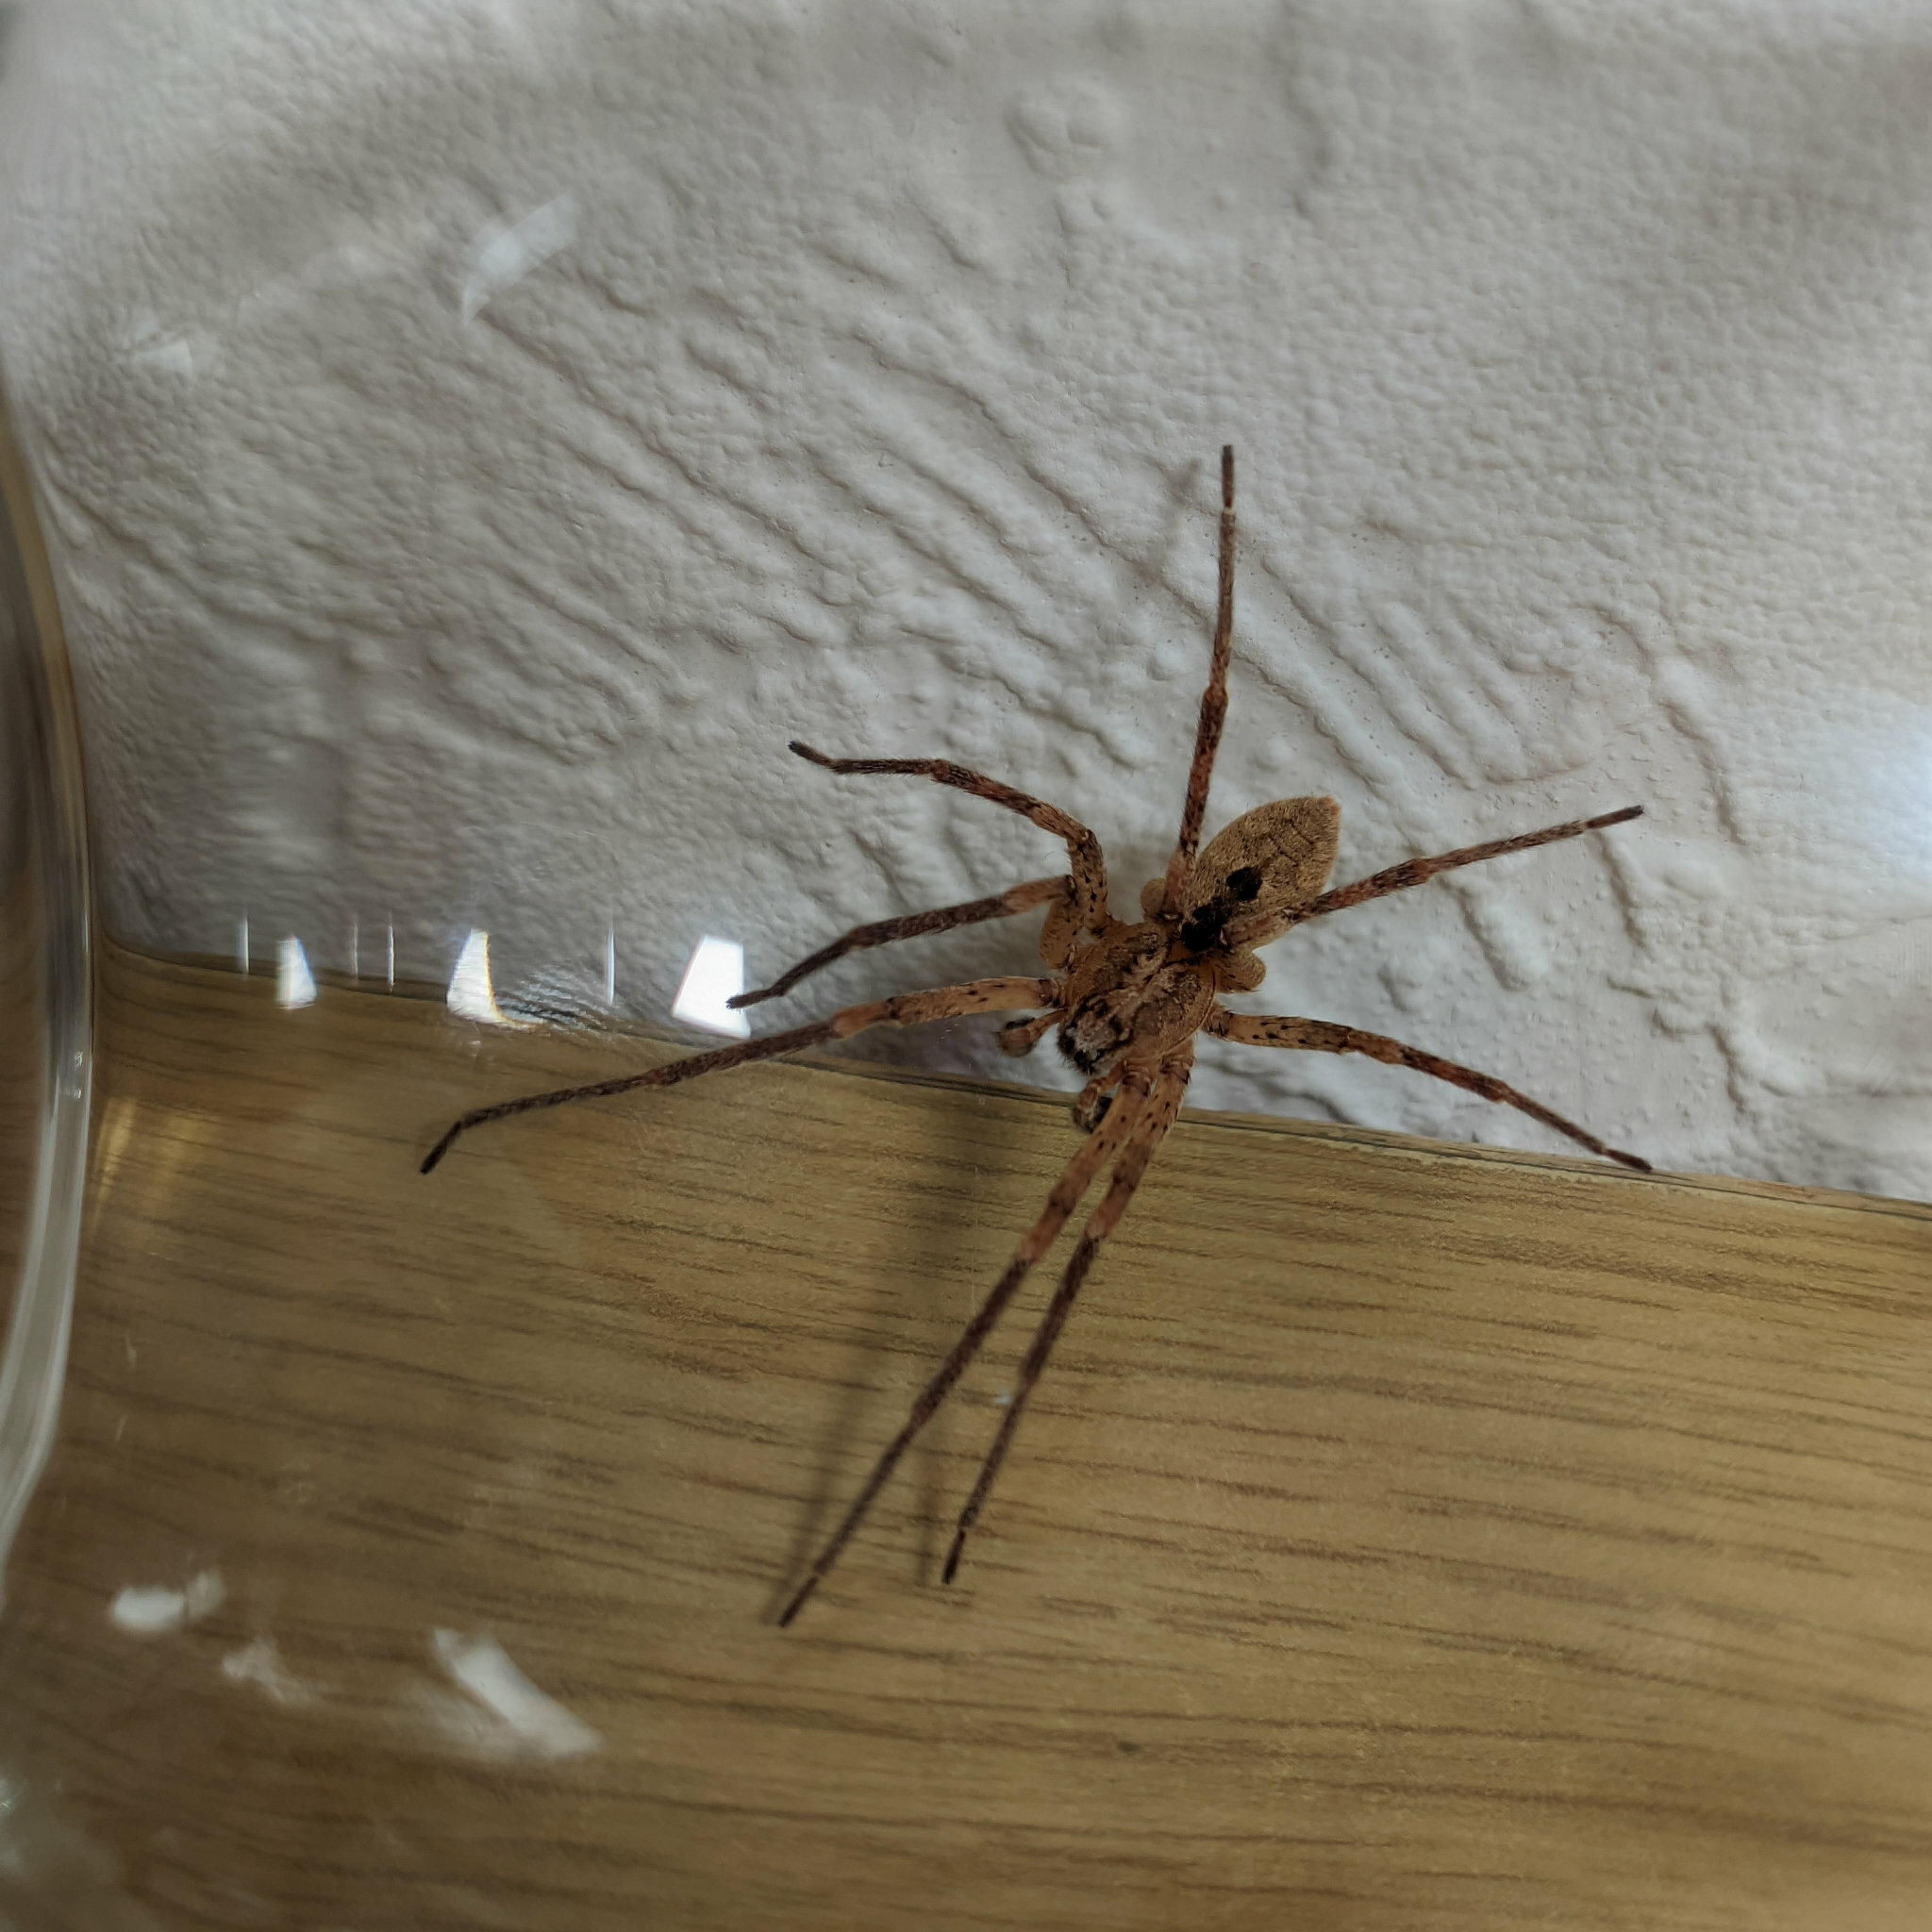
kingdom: Animalia
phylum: Arthropoda
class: Arachnida
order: Araneae
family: Zoropsidae
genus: Zoropsis
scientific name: Zoropsis spinimana
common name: Zoropsid spider
